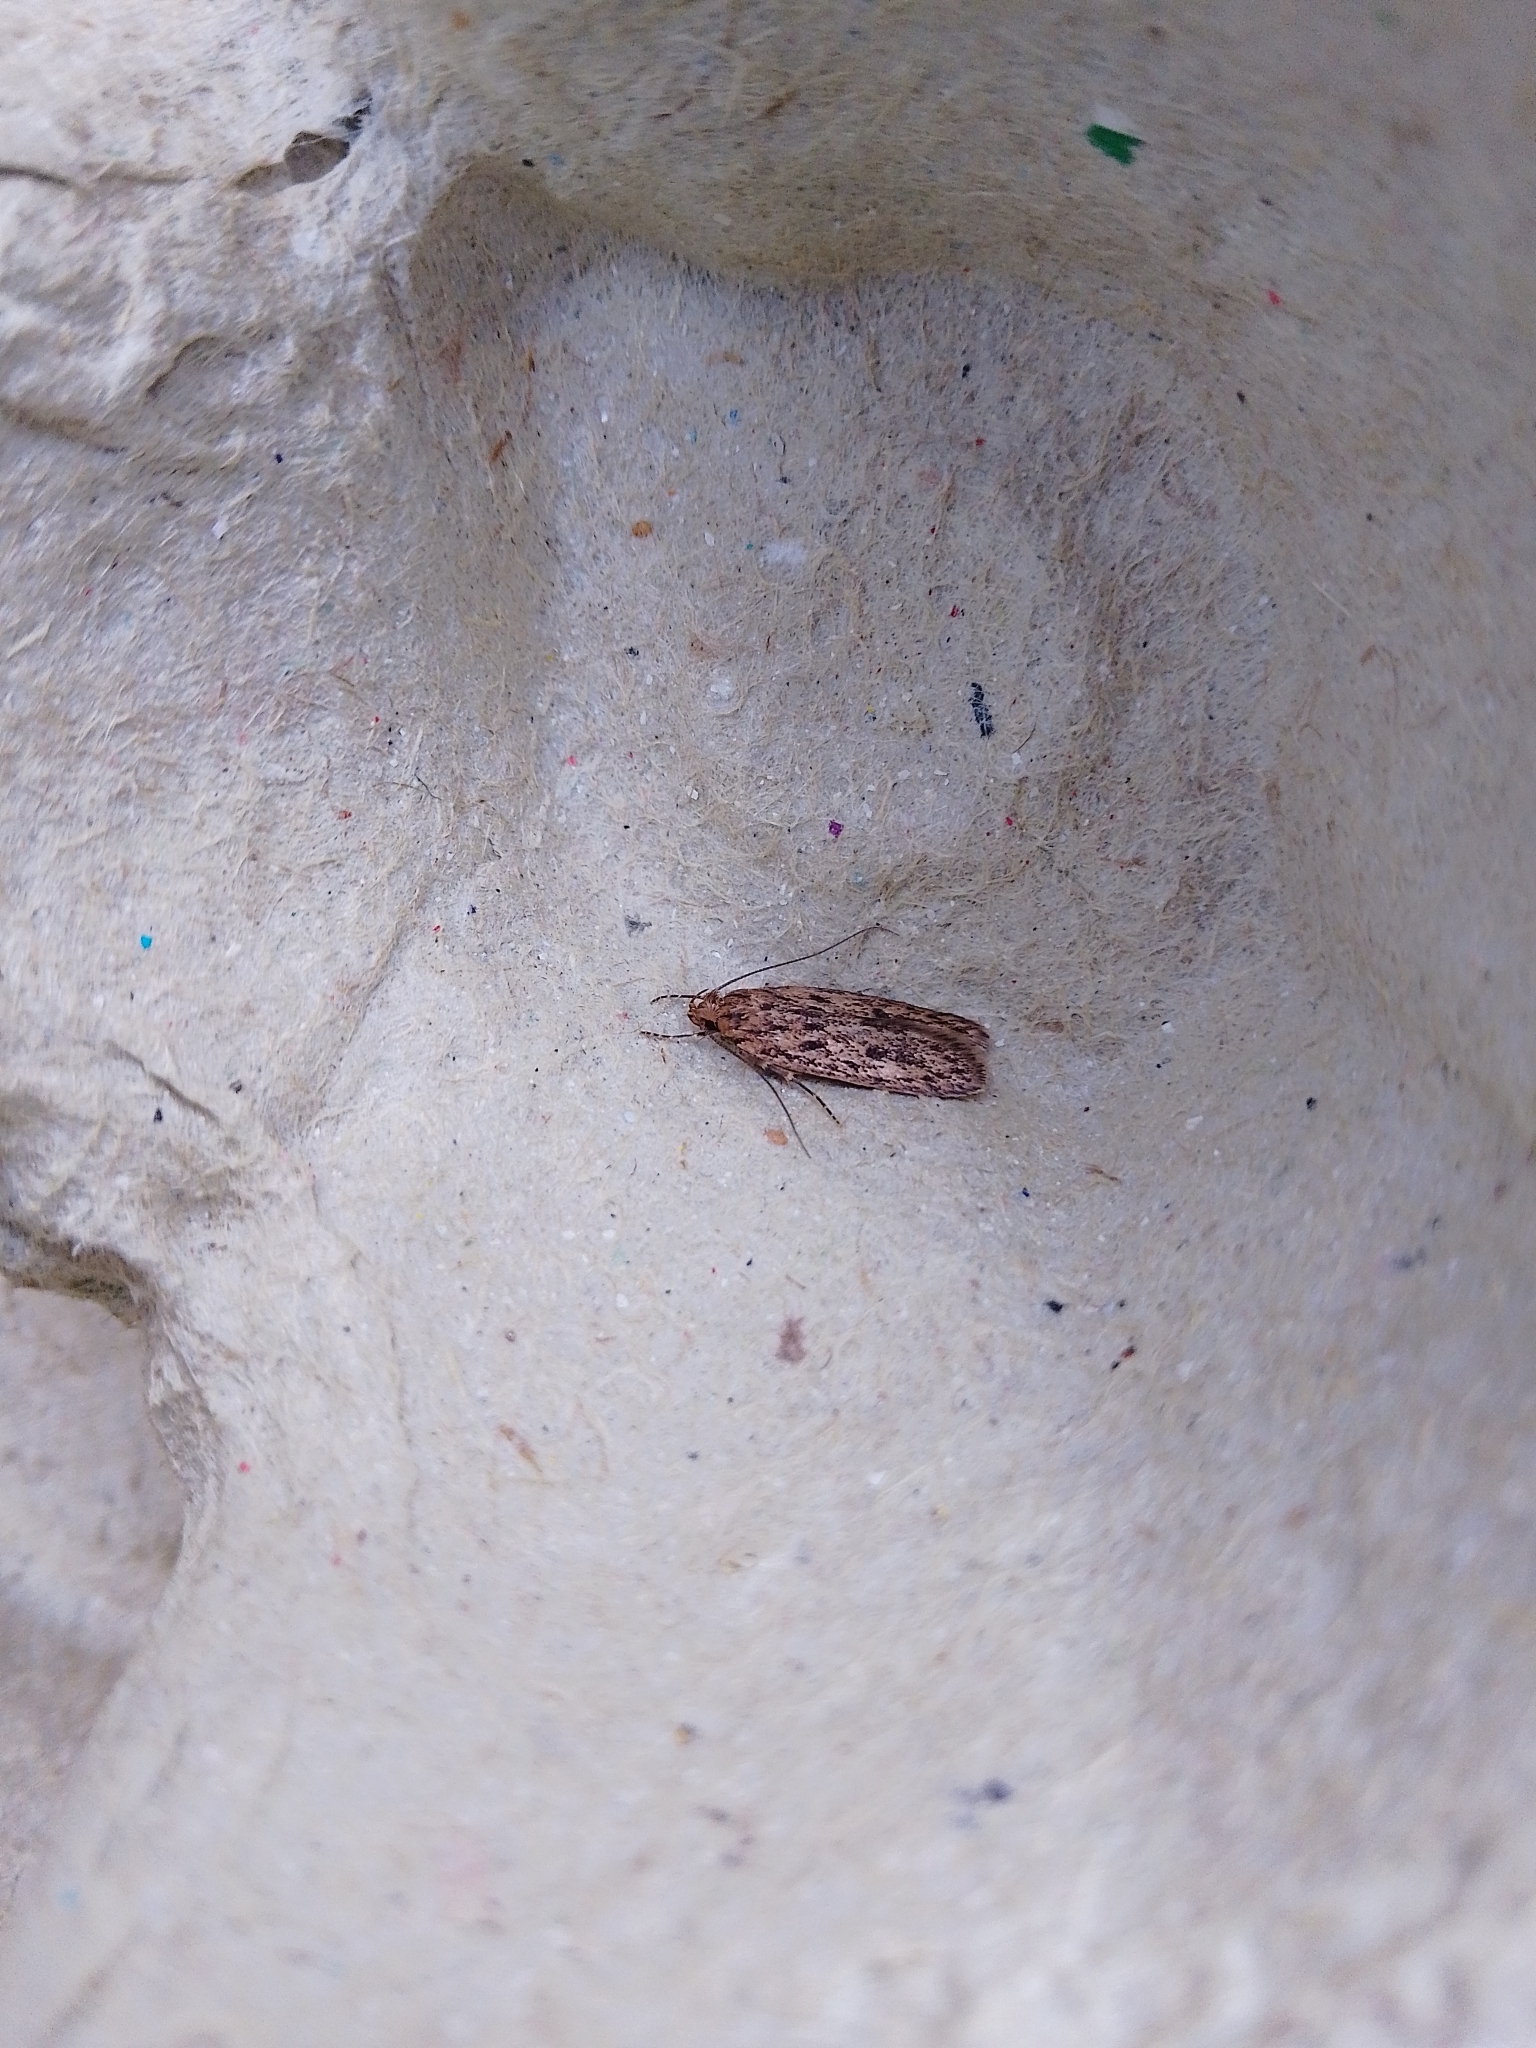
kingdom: Animalia
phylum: Arthropoda
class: Insecta
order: Lepidoptera
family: Oecophoridae
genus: Hofmannophila
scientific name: Hofmannophila pseudospretella
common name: Brown house moth
